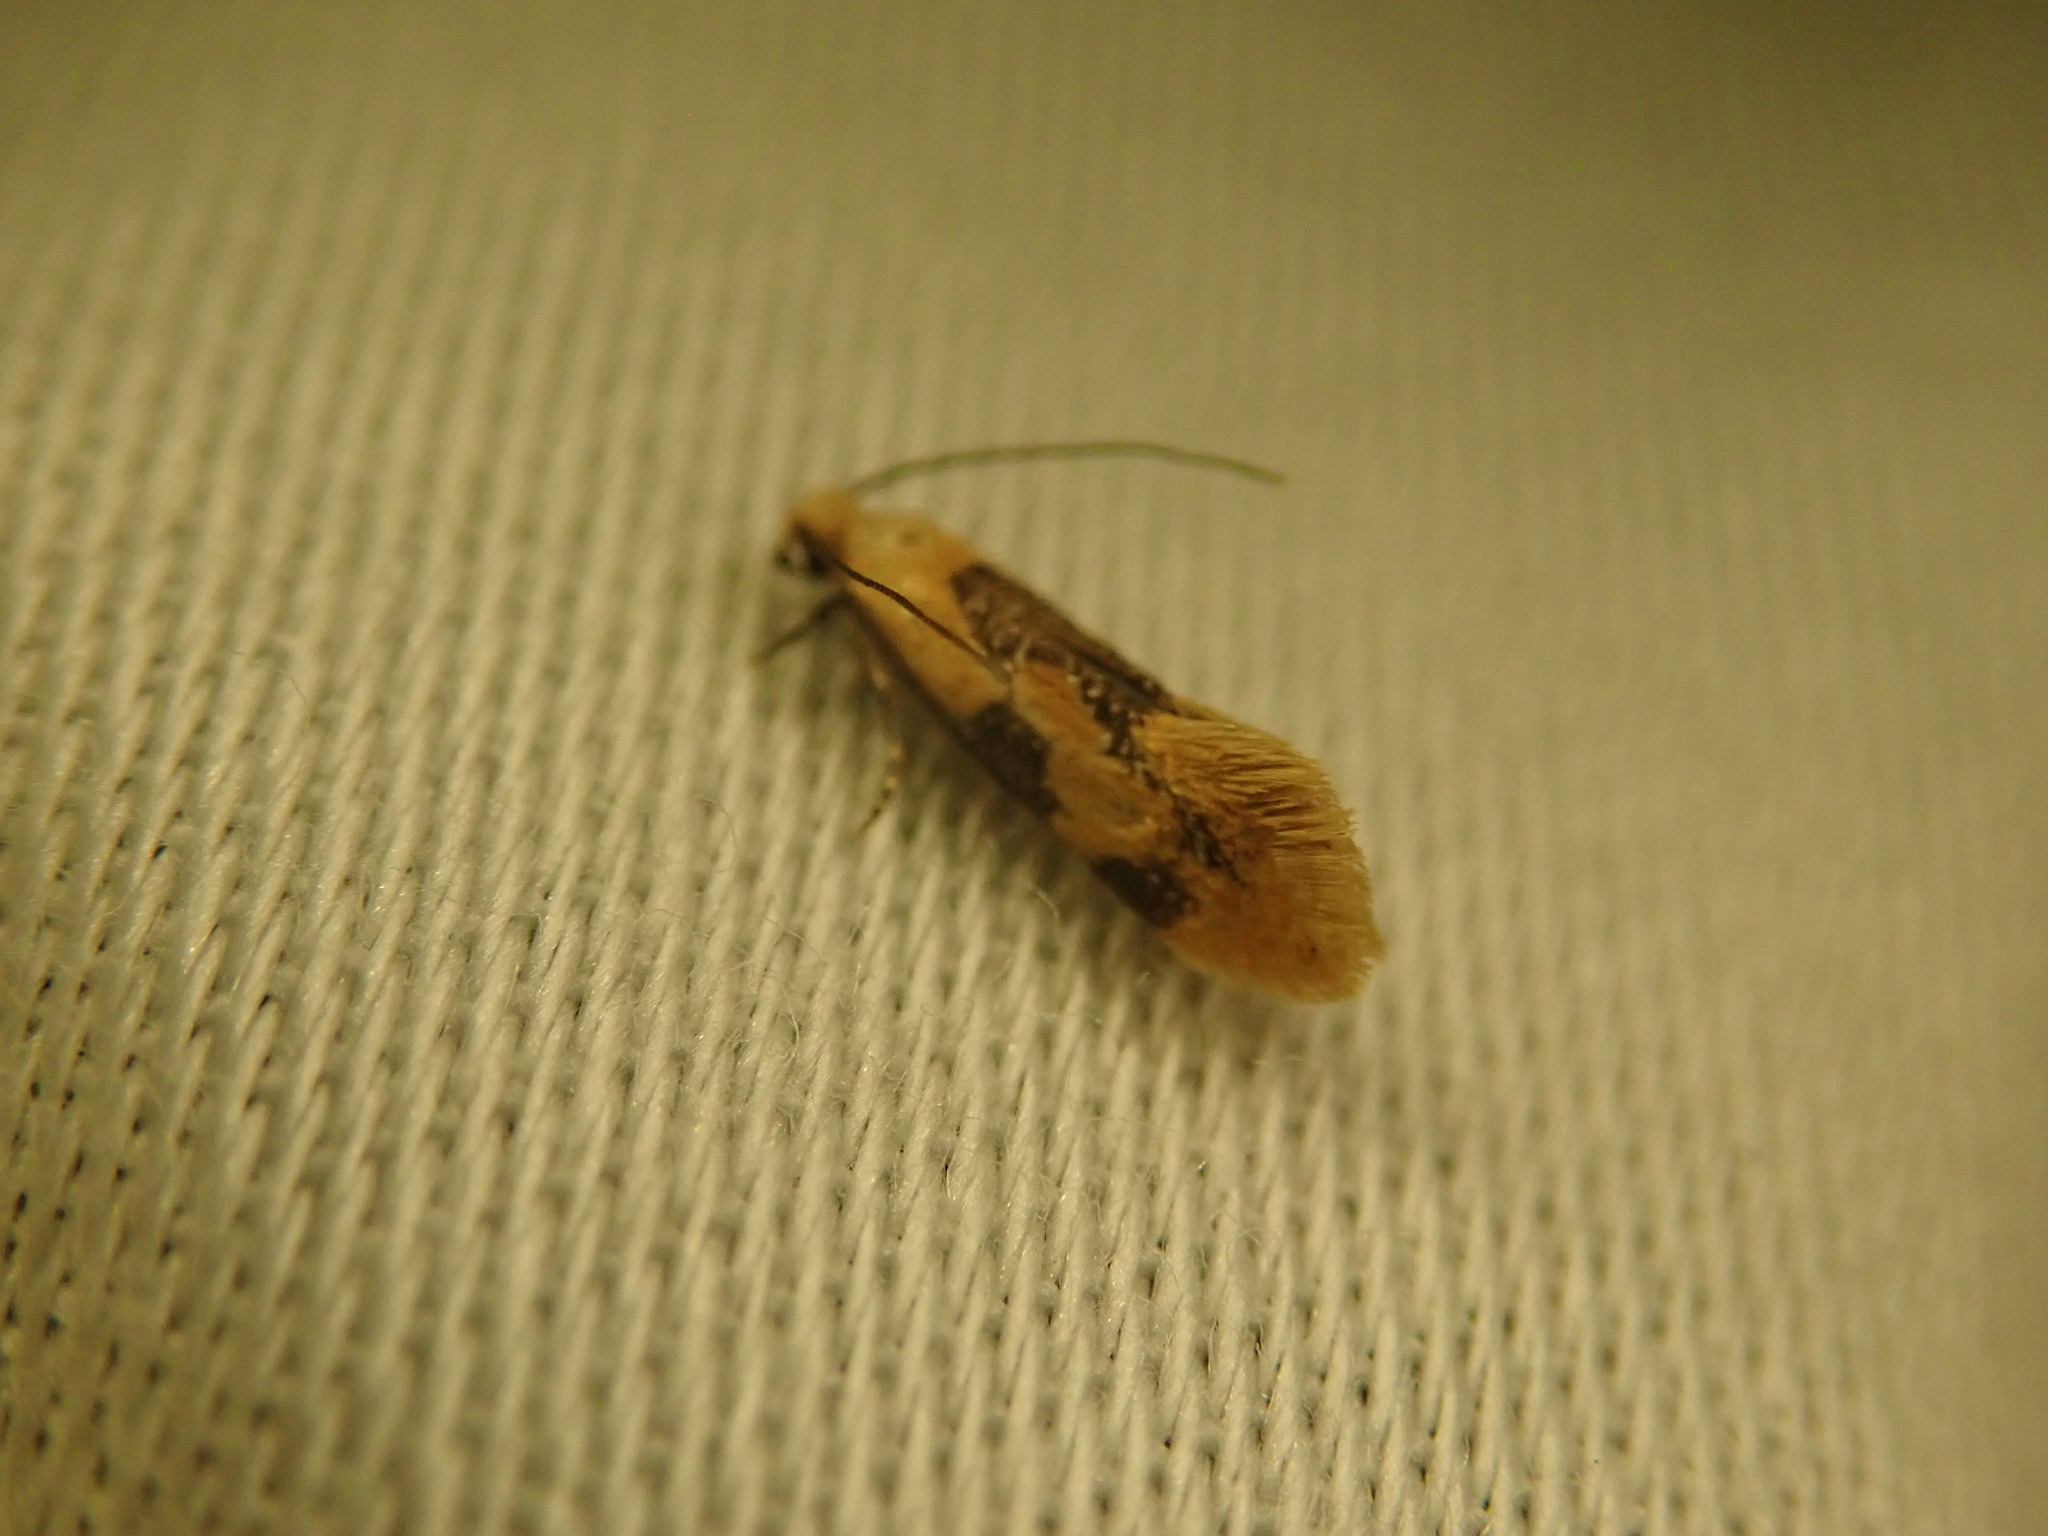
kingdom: Animalia
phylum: Arthropoda
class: Insecta
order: Lepidoptera
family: Meessiidae
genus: Hybroma
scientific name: Hybroma servulella
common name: Yellow wave moth
